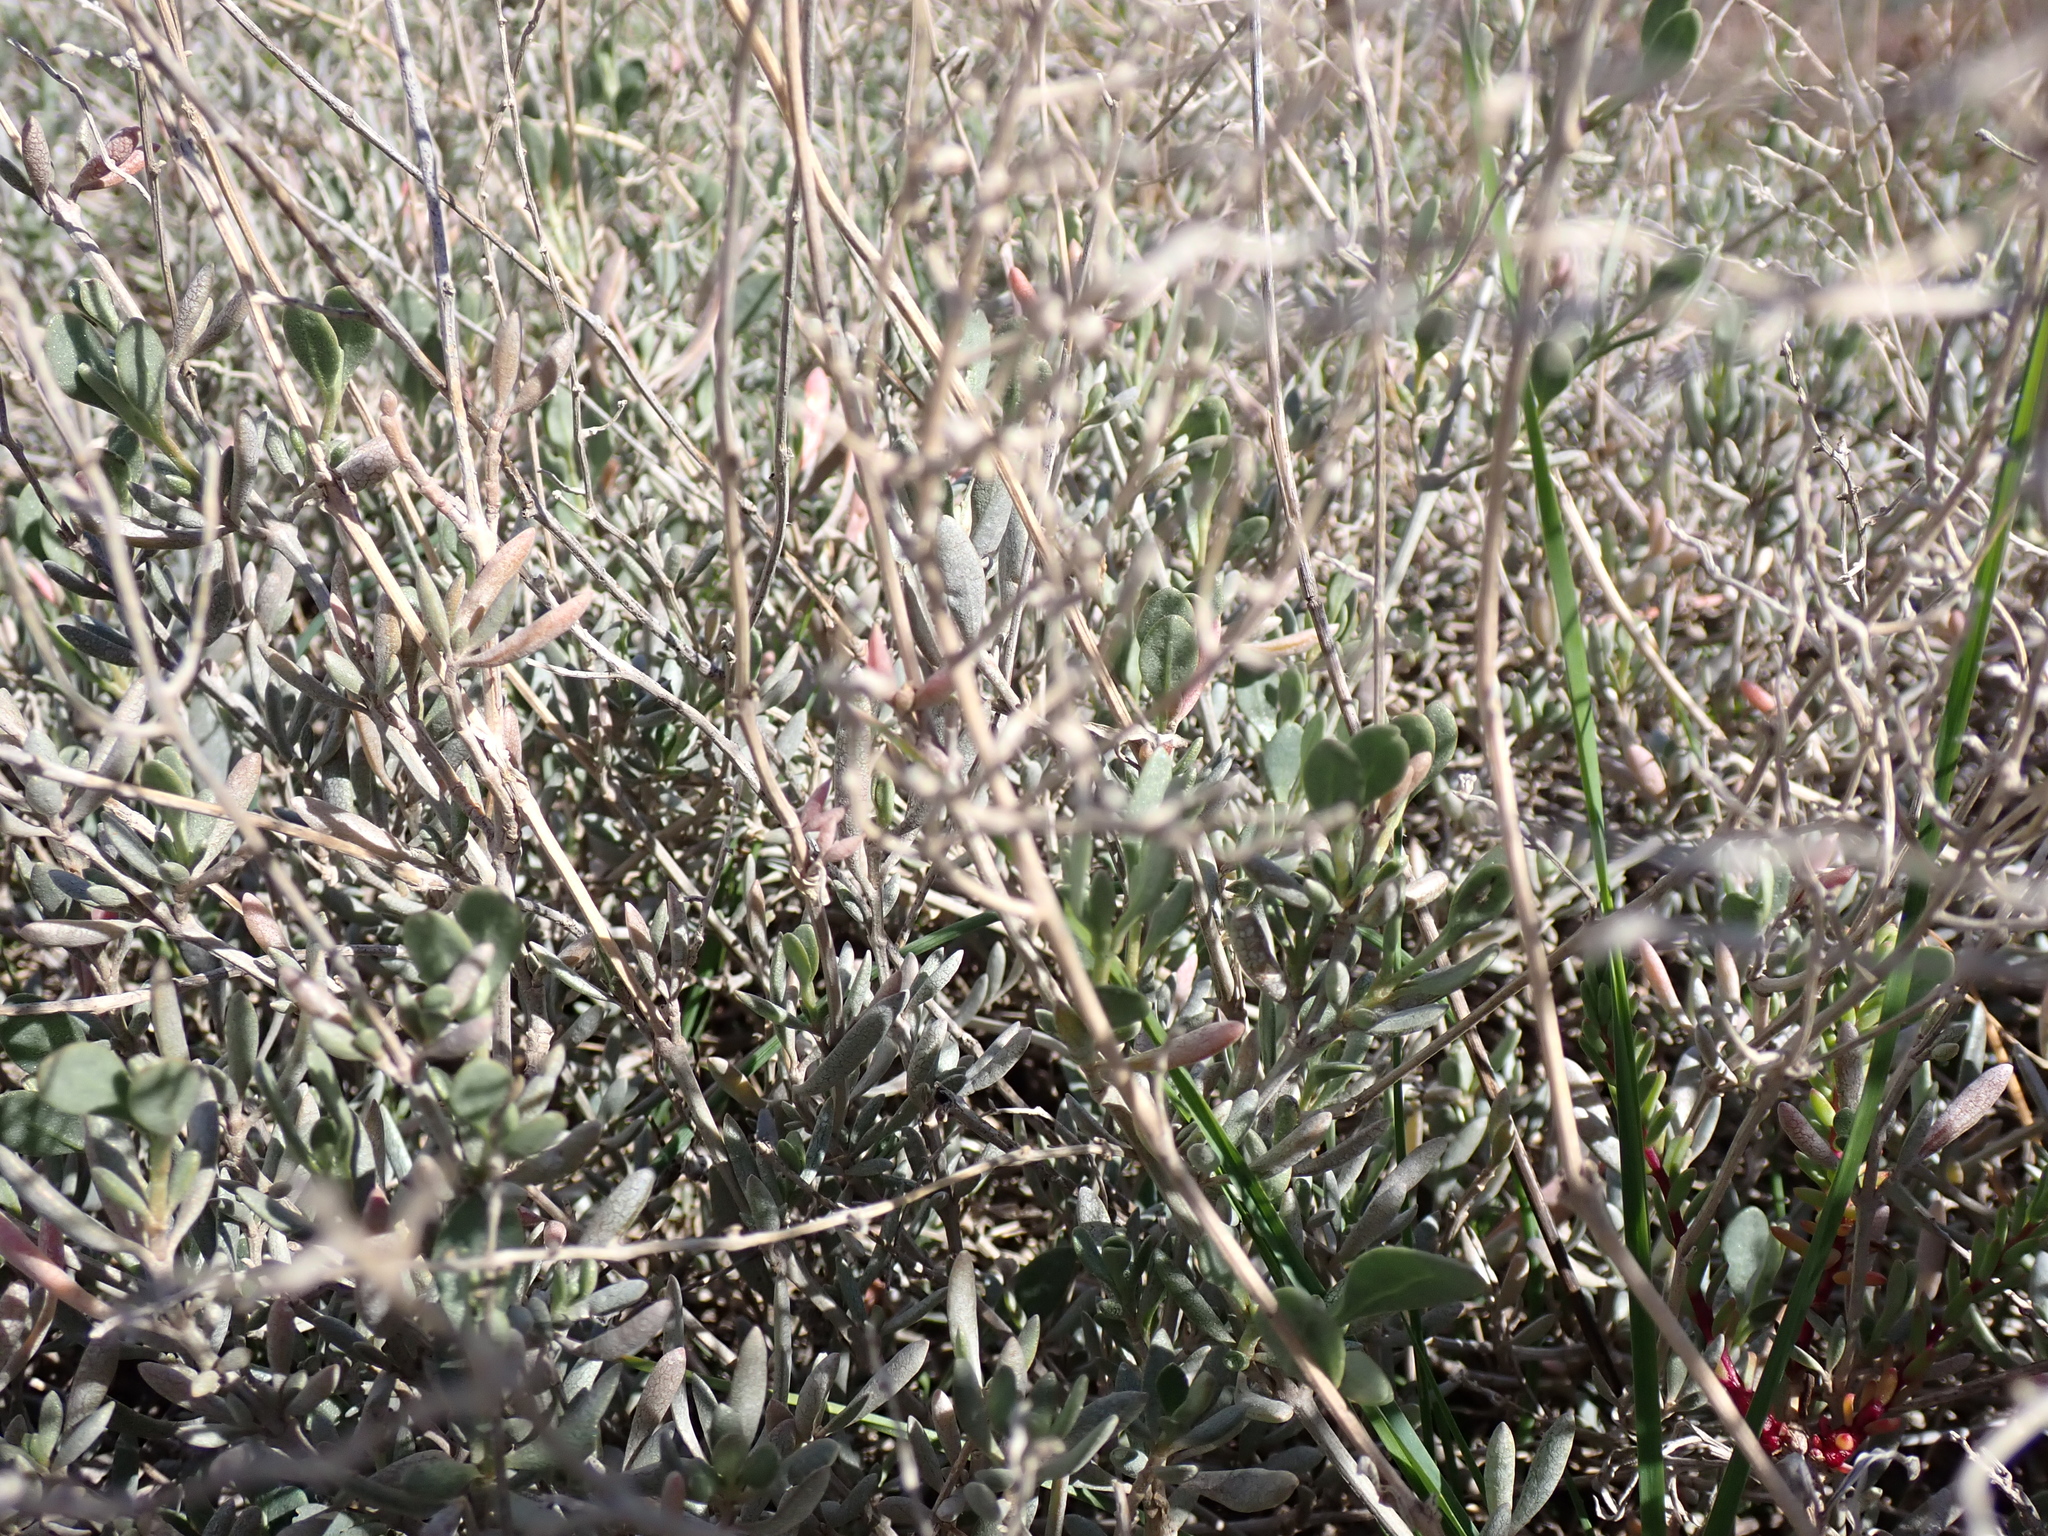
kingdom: Plantae
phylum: Tracheophyta
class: Magnoliopsida
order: Caryophyllales
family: Amaranthaceae
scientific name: Amaranthaceae
